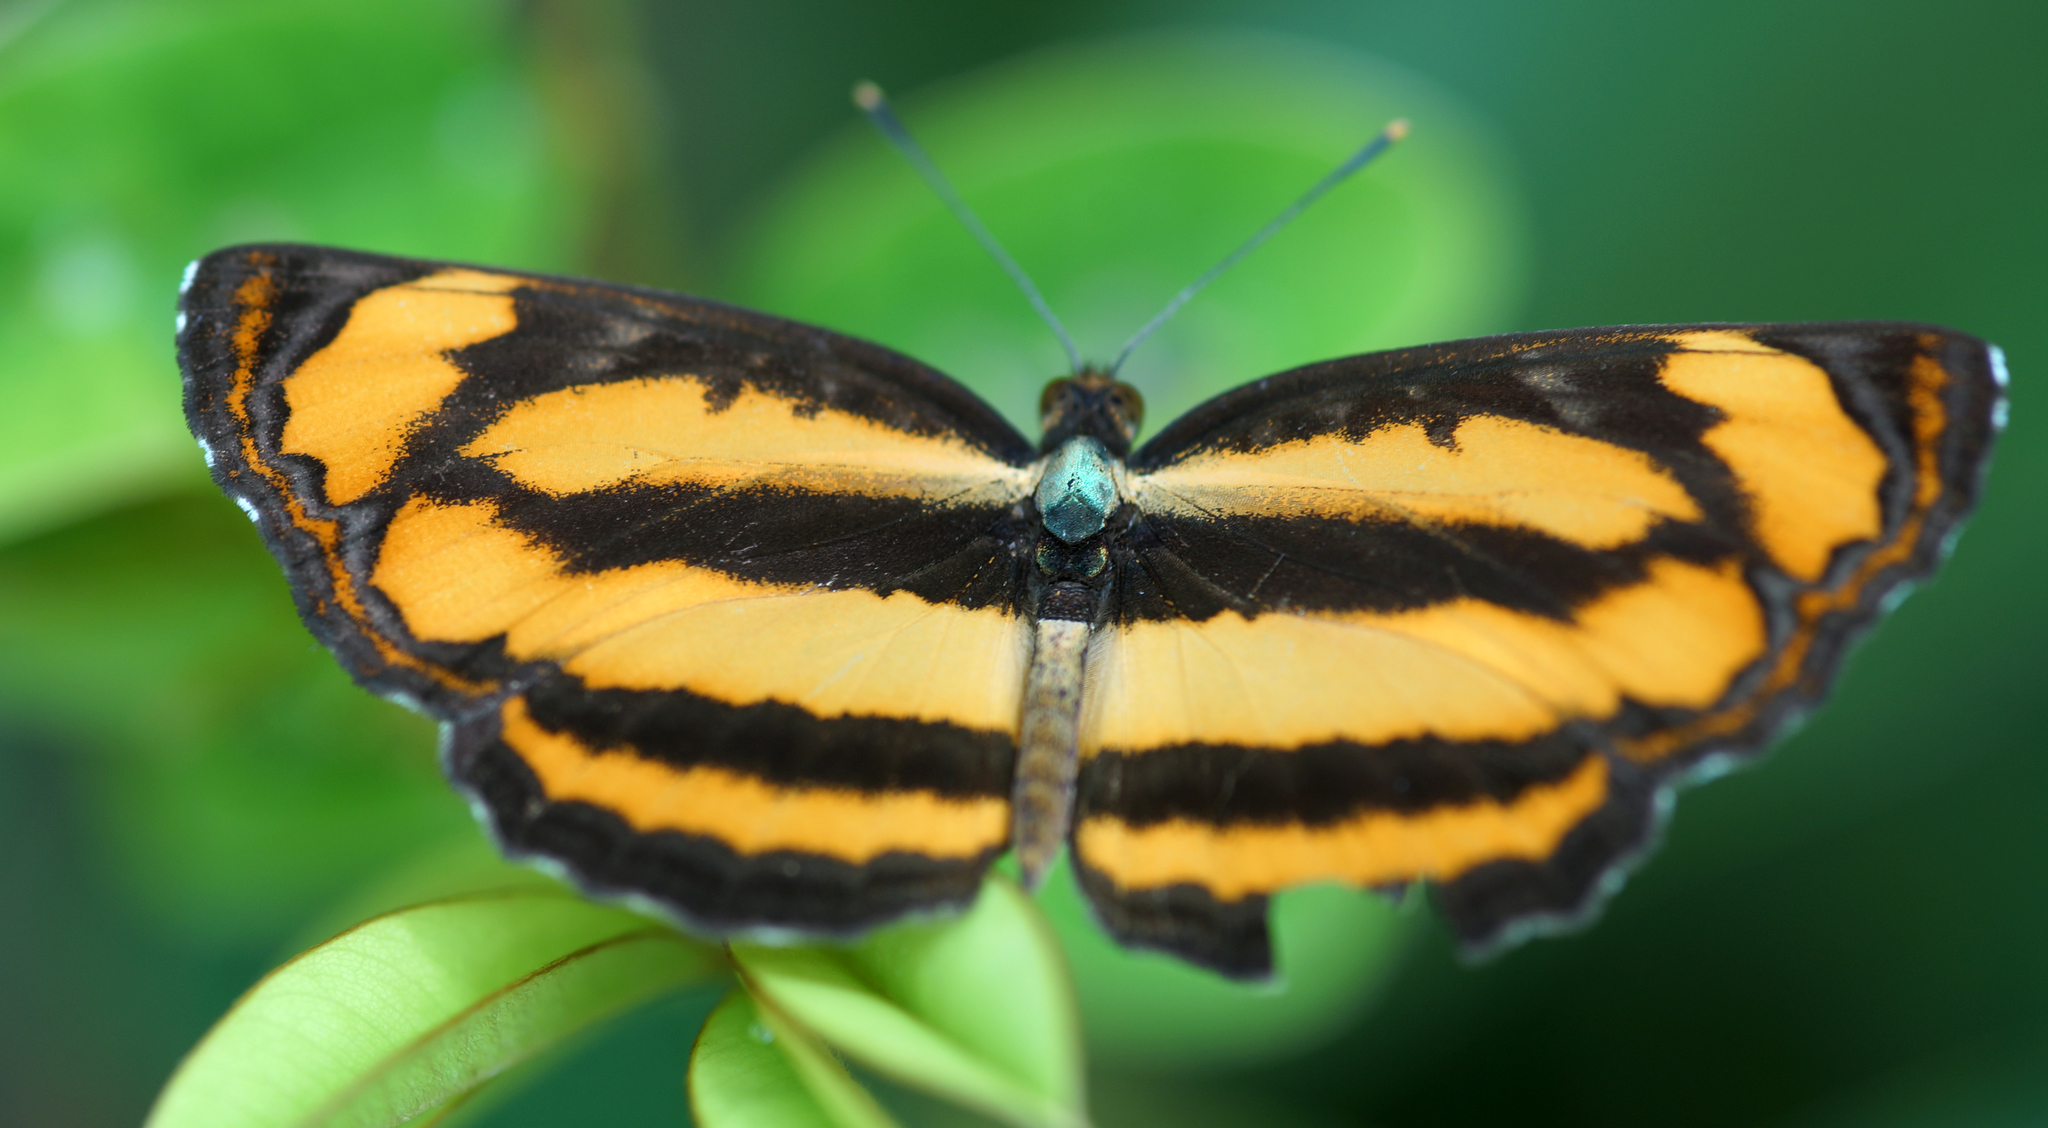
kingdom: Animalia
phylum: Arthropoda
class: Insecta
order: Lepidoptera
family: Nymphalidae
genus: Pantoporia
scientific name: Pantoporia hordonia
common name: Common lascar
